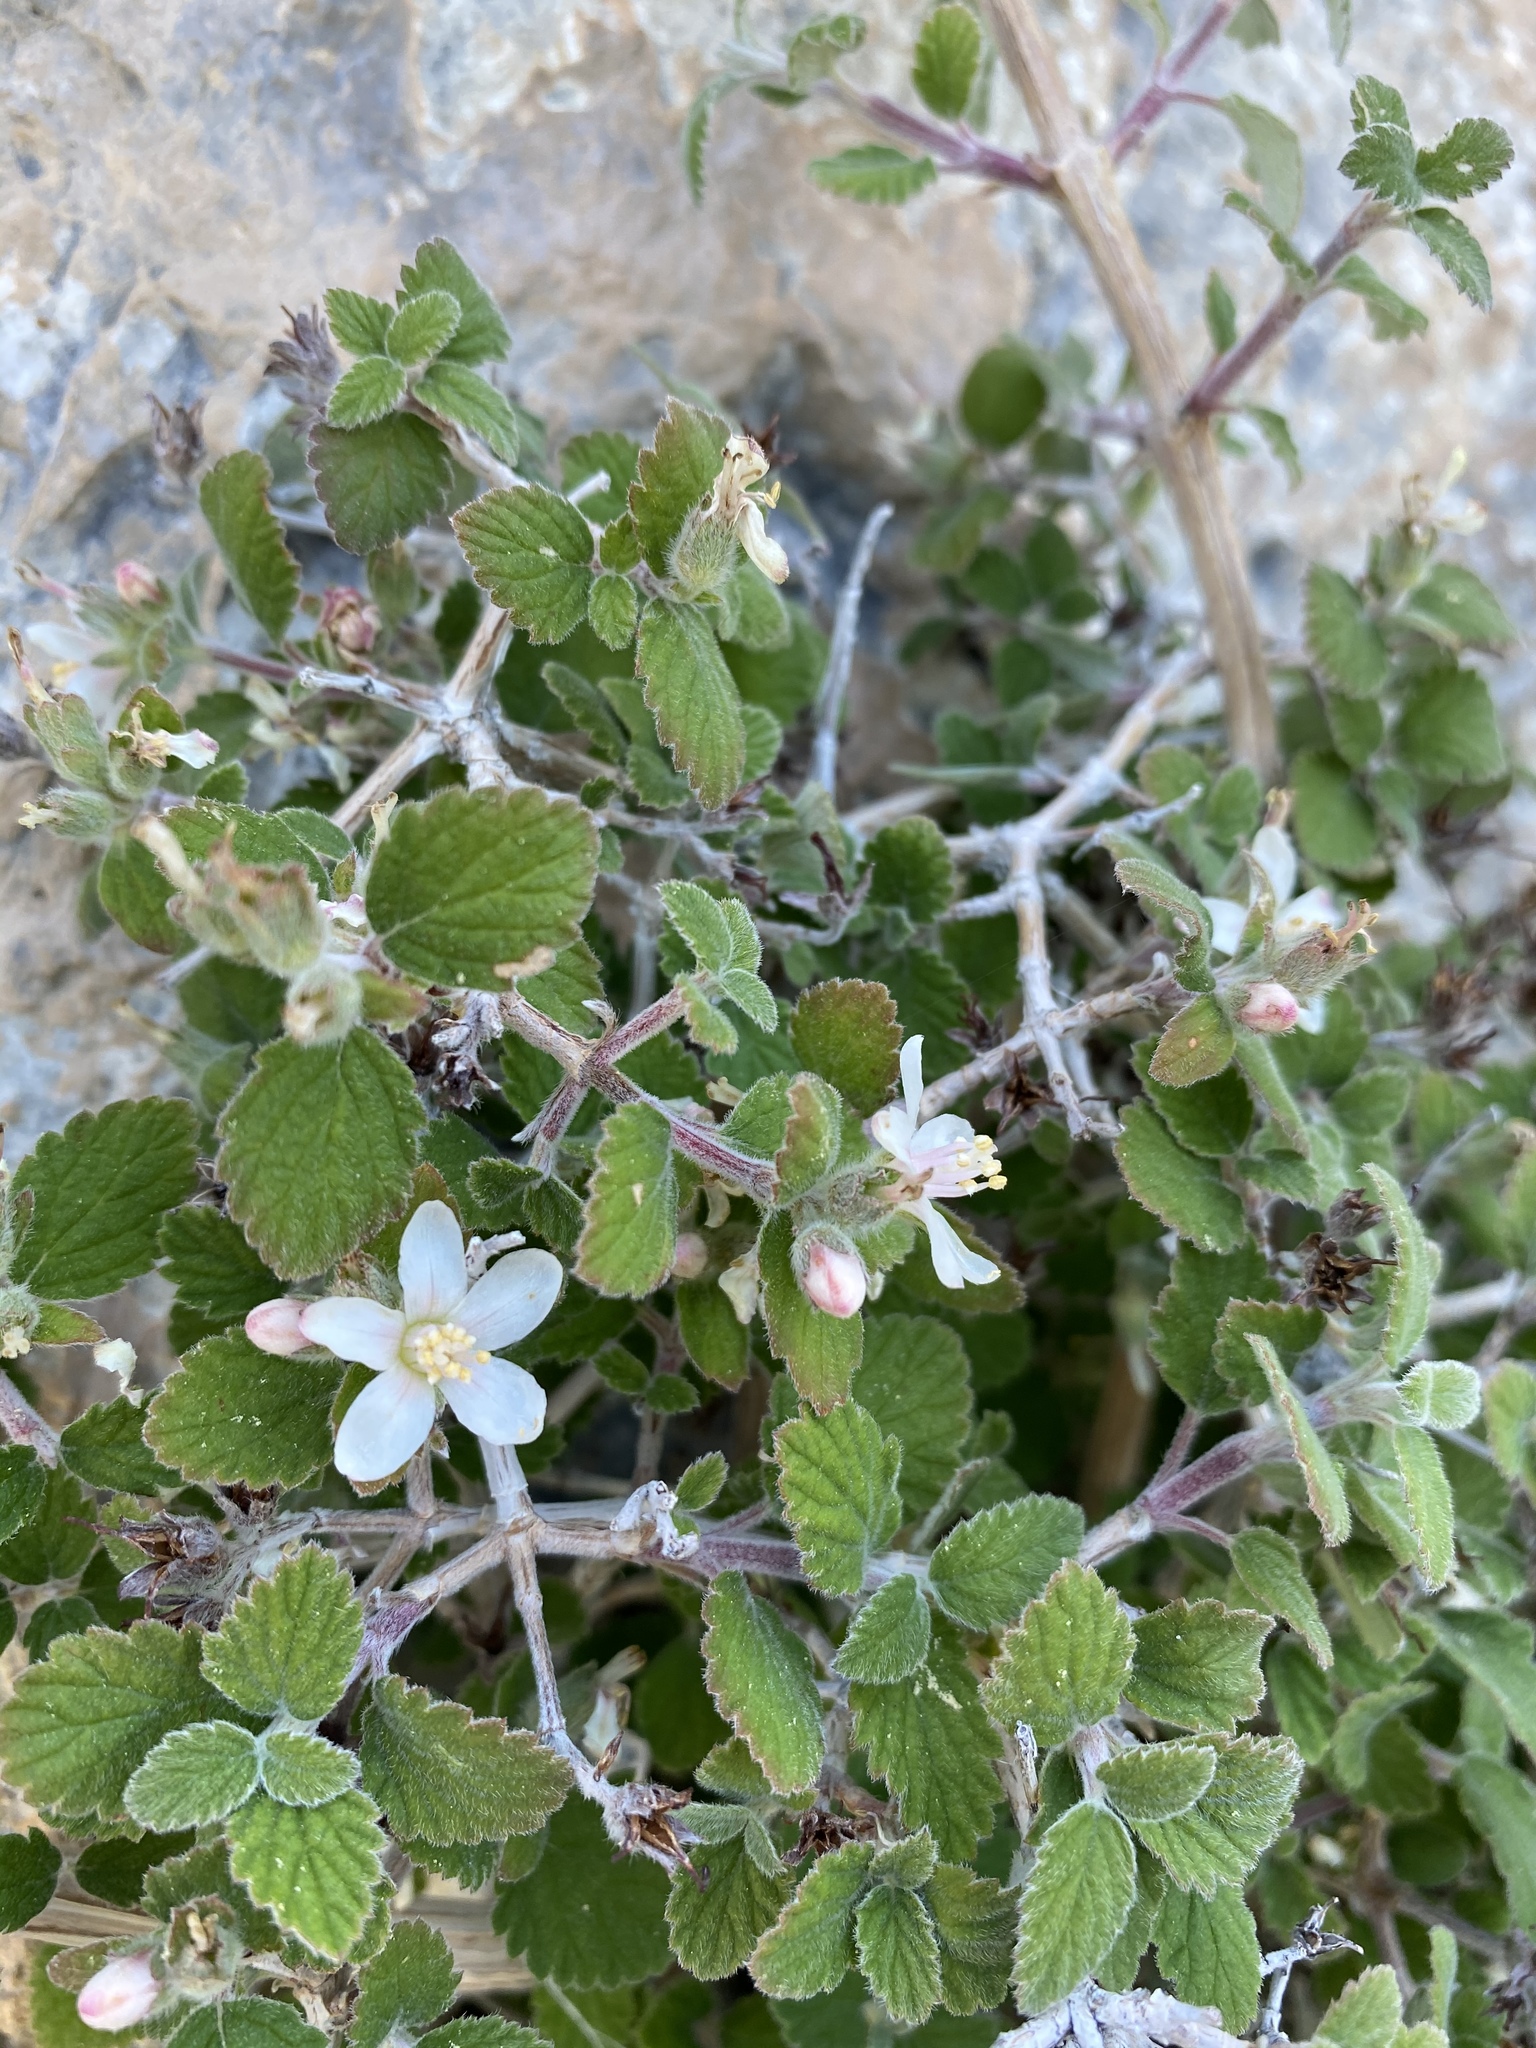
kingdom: Plantae
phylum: Tracheophyta
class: Magnoliopsida
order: Cornales
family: Hydrangeaceae
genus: Jamesia
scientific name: Jamesia americana
